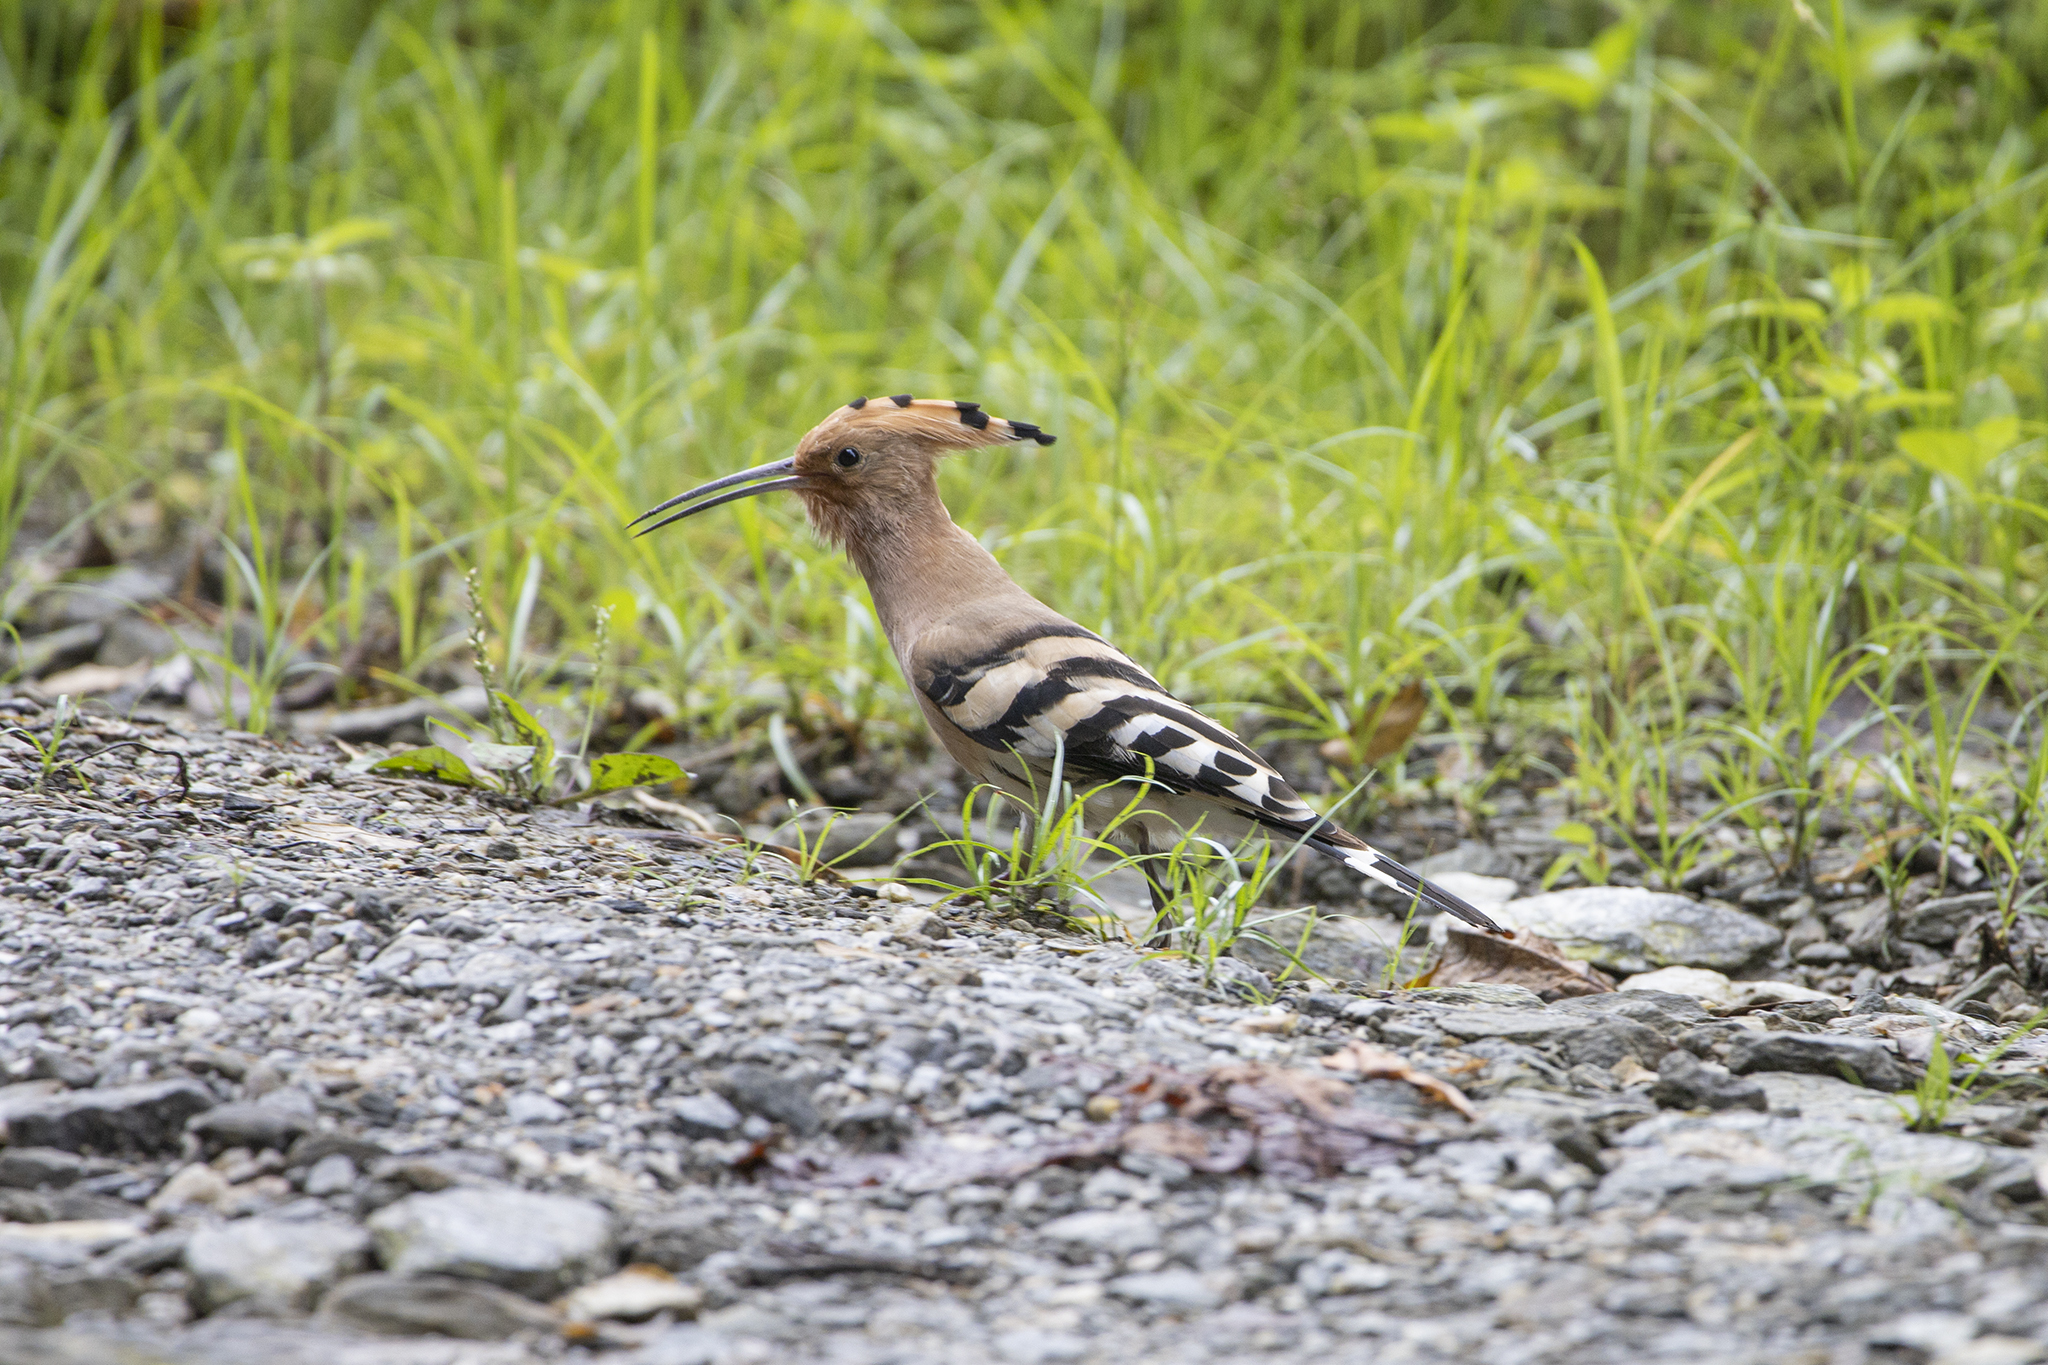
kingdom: Animalia
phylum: Chordata
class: Aves
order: Bucerotiformes
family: Upupidae
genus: Upupa
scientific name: Upupa epops
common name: Eurasian hoopoe
